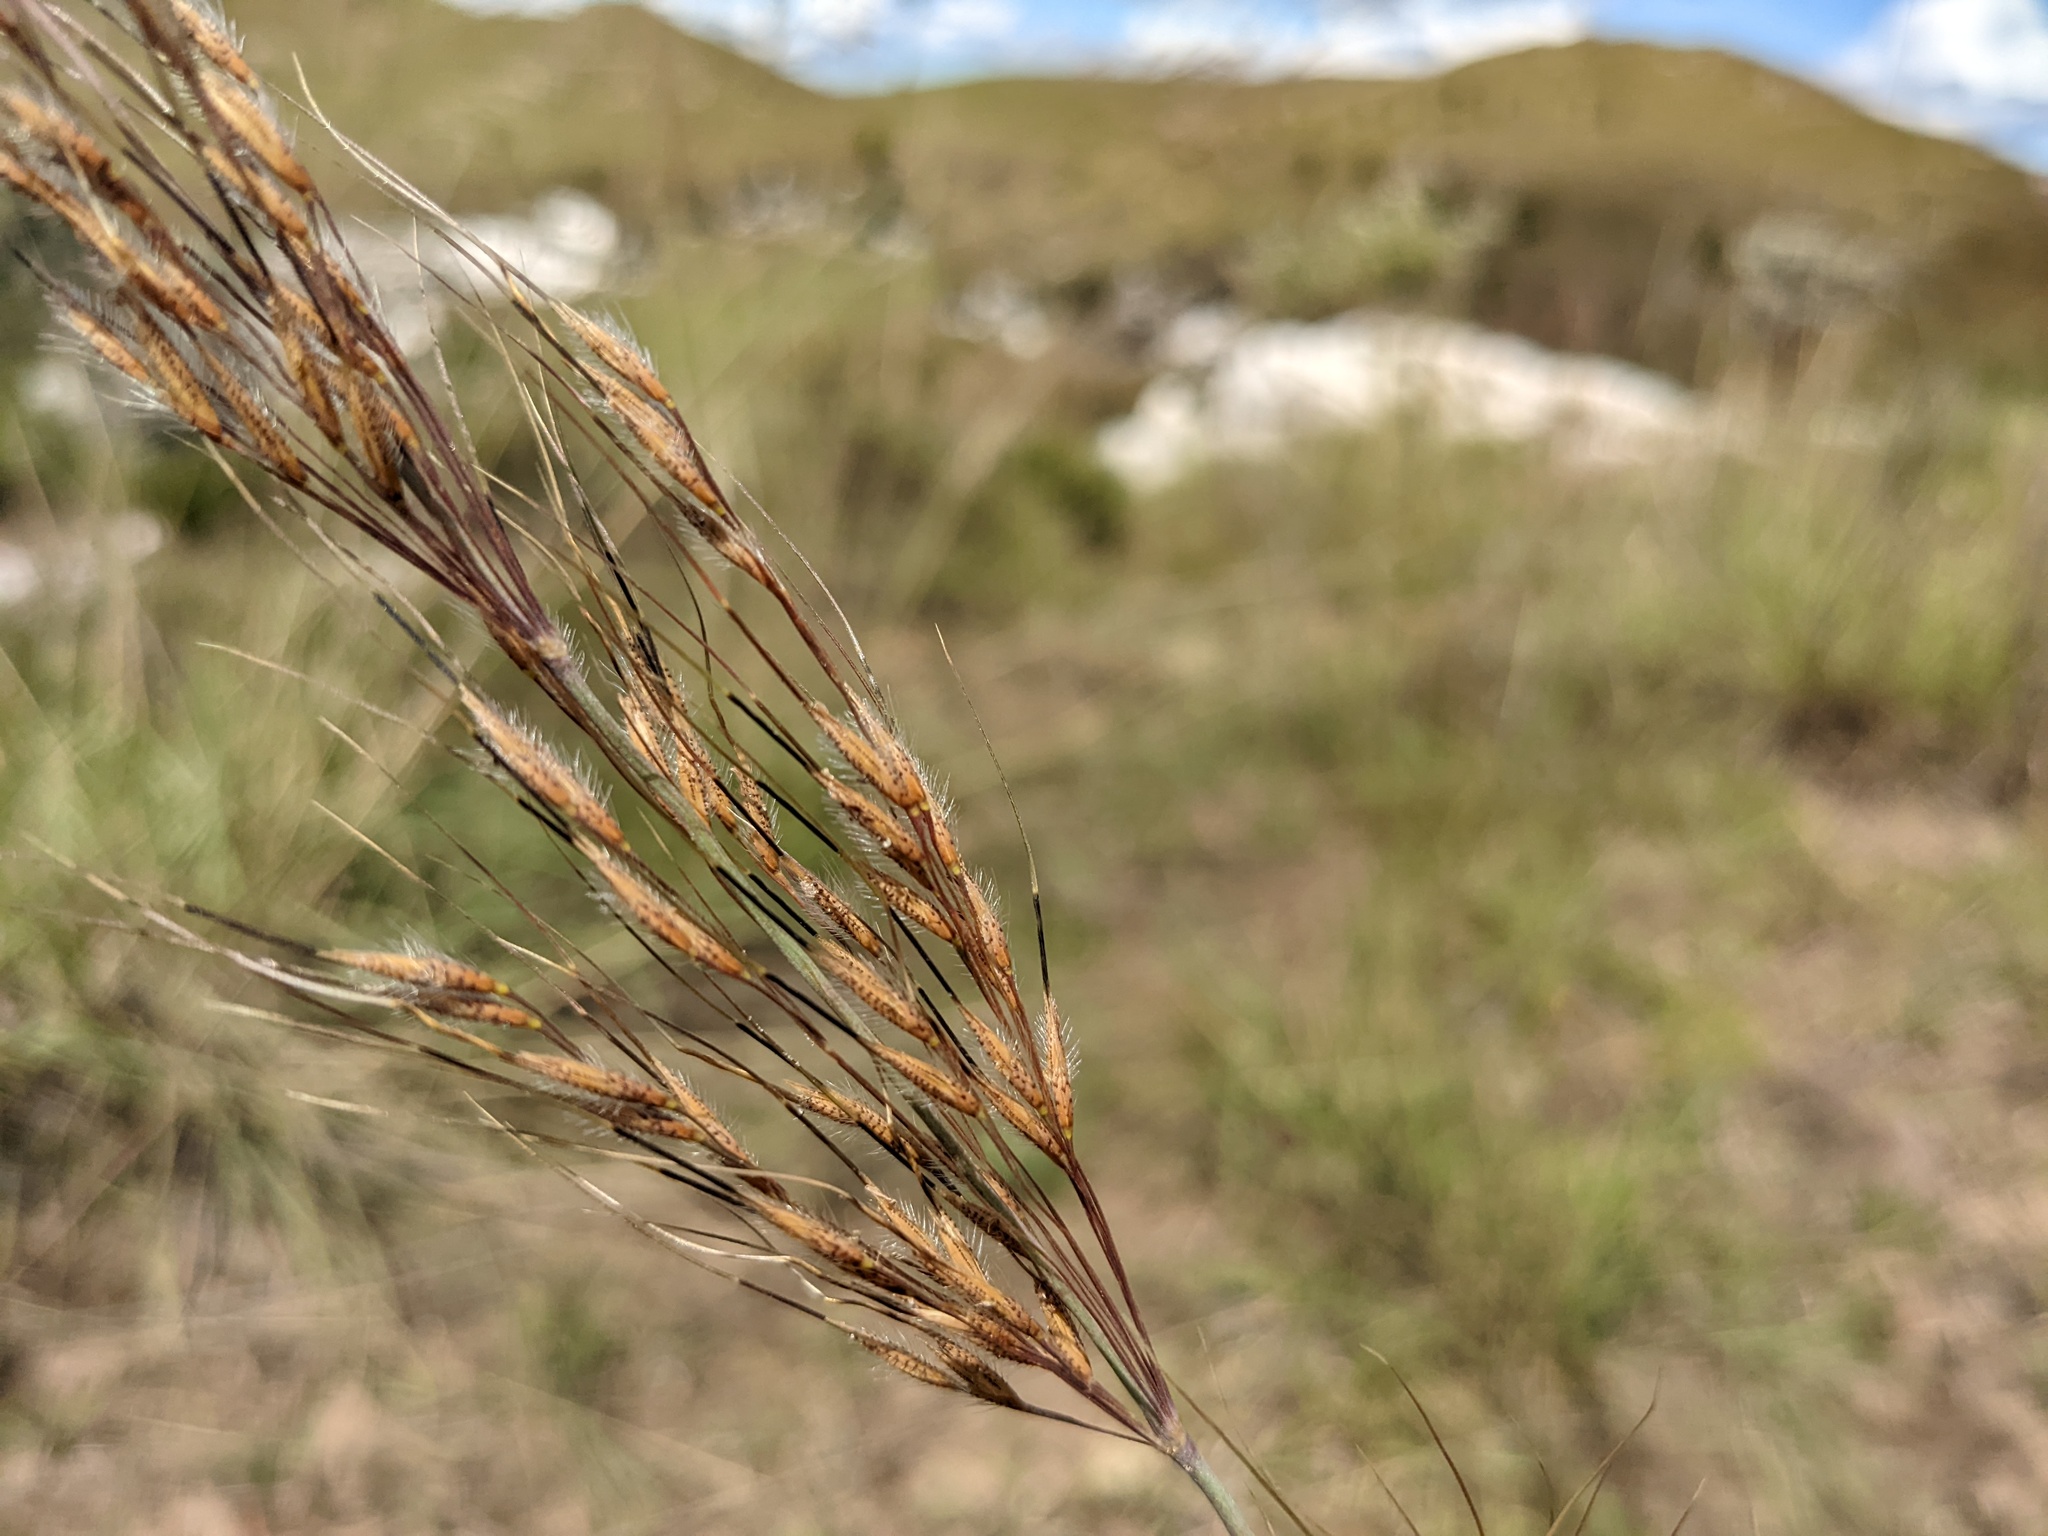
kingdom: Plantae
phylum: Tracheophyta
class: Liliopsida
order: Poales
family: Poaceae
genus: Loudetia
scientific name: Loudetia simplex
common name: Common russet grass
